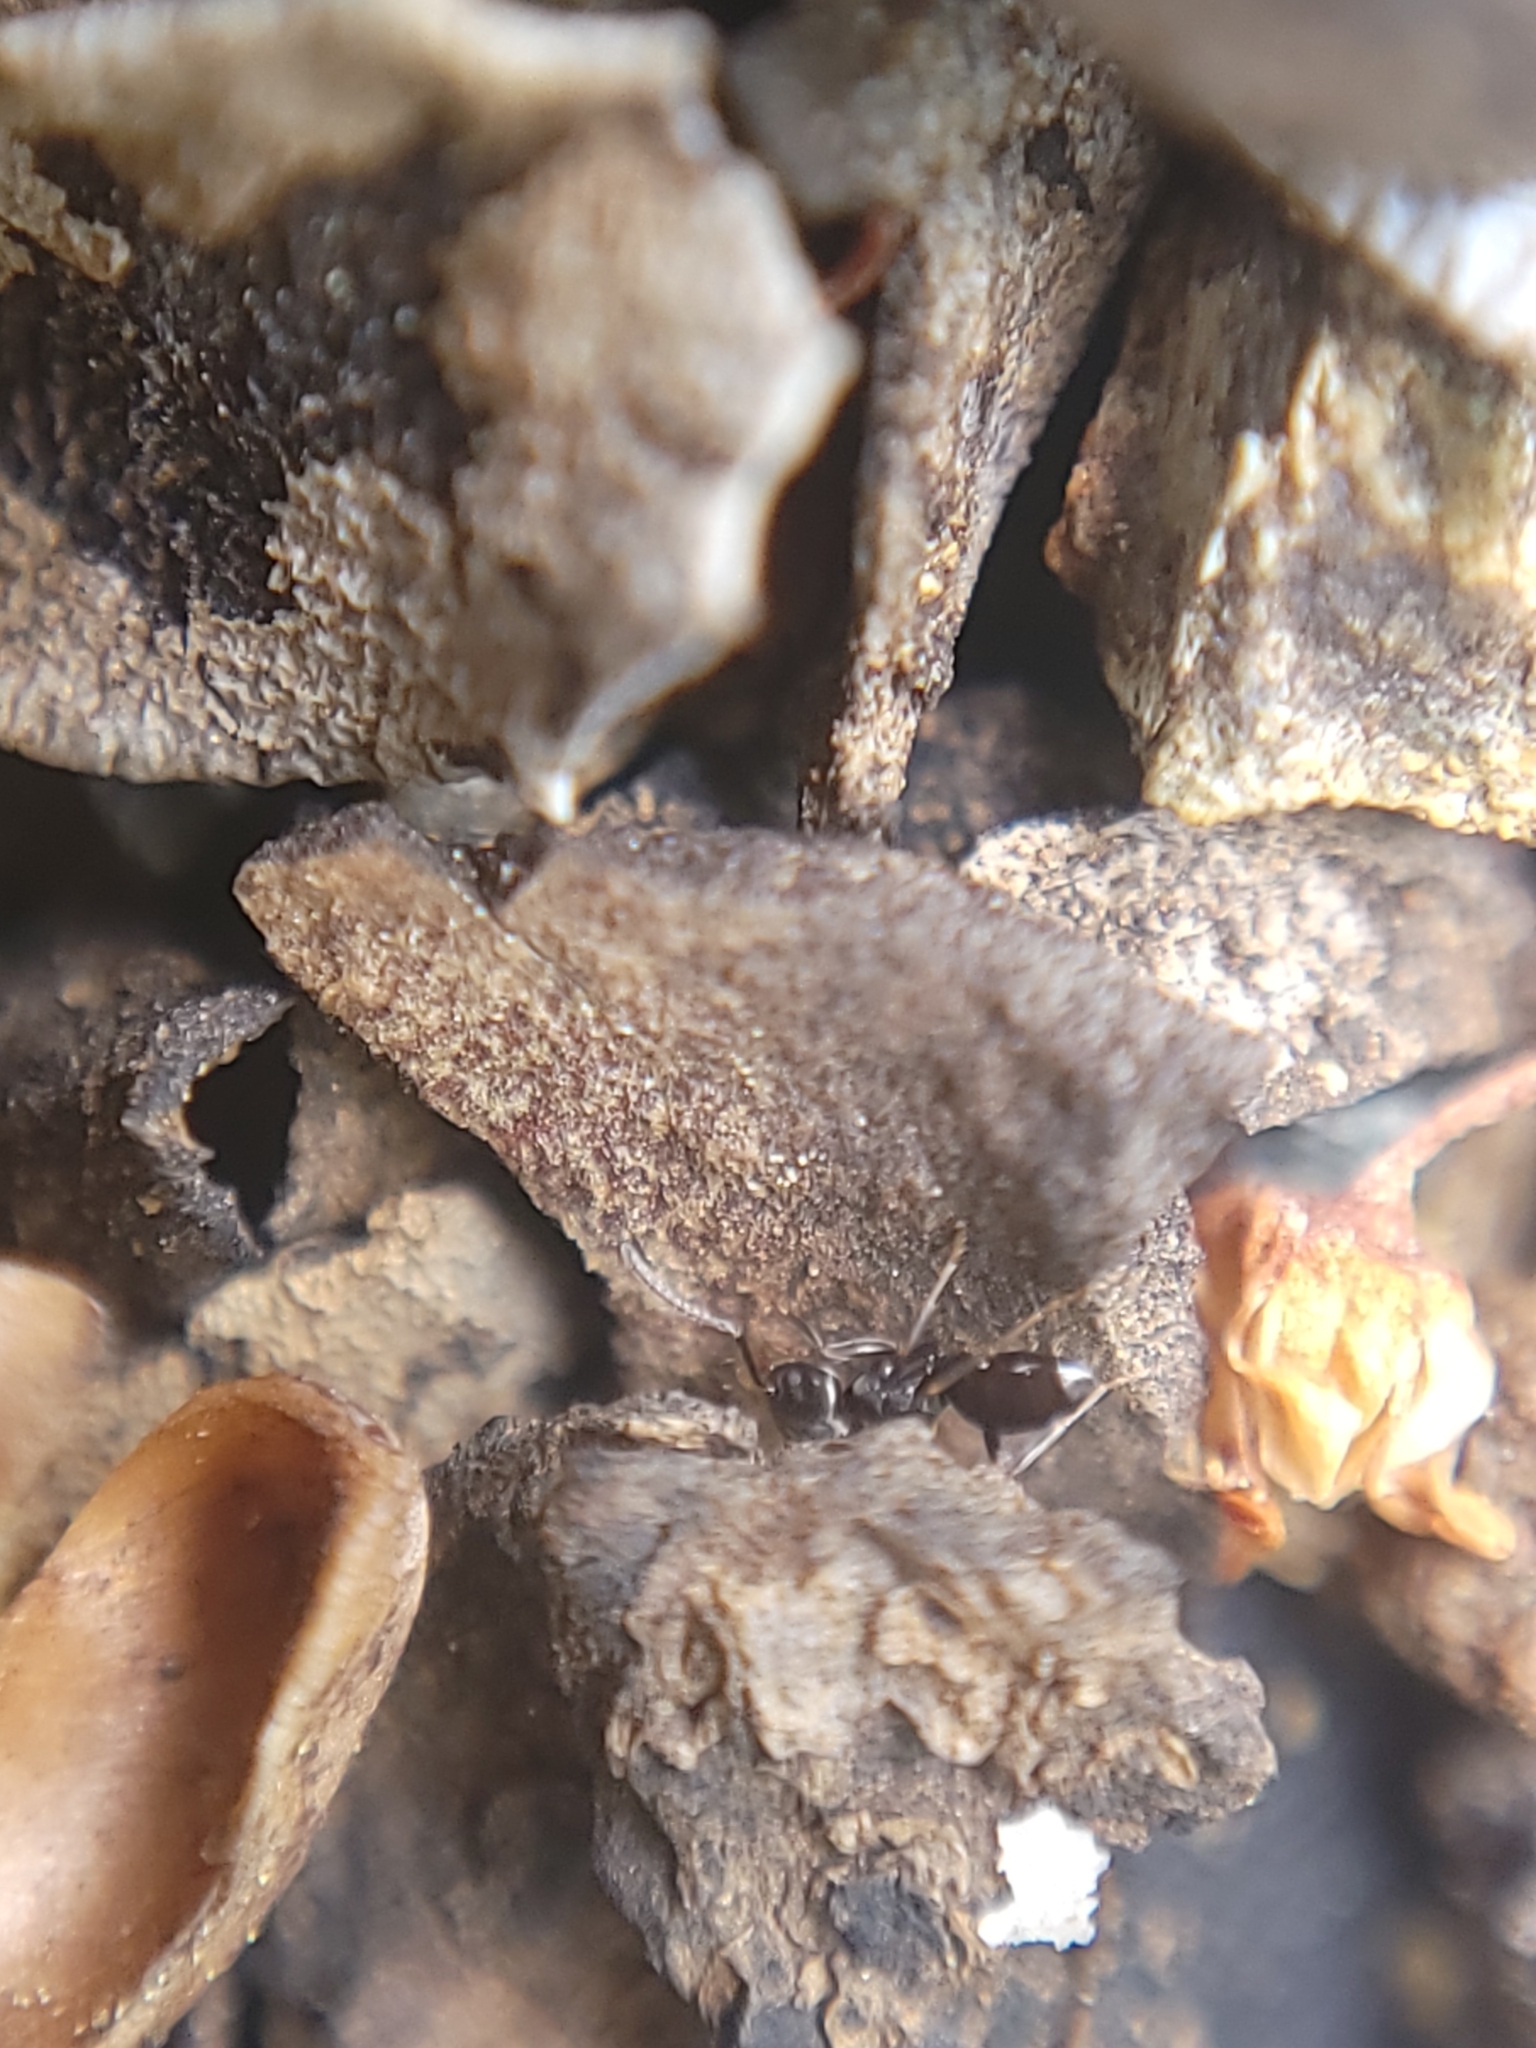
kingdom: Animalia
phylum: Arthropoda
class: Insecta
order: Hymenoptera
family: Formicidae
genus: Tapinoma
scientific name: Tapinoma sessile
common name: Odorous house ant
